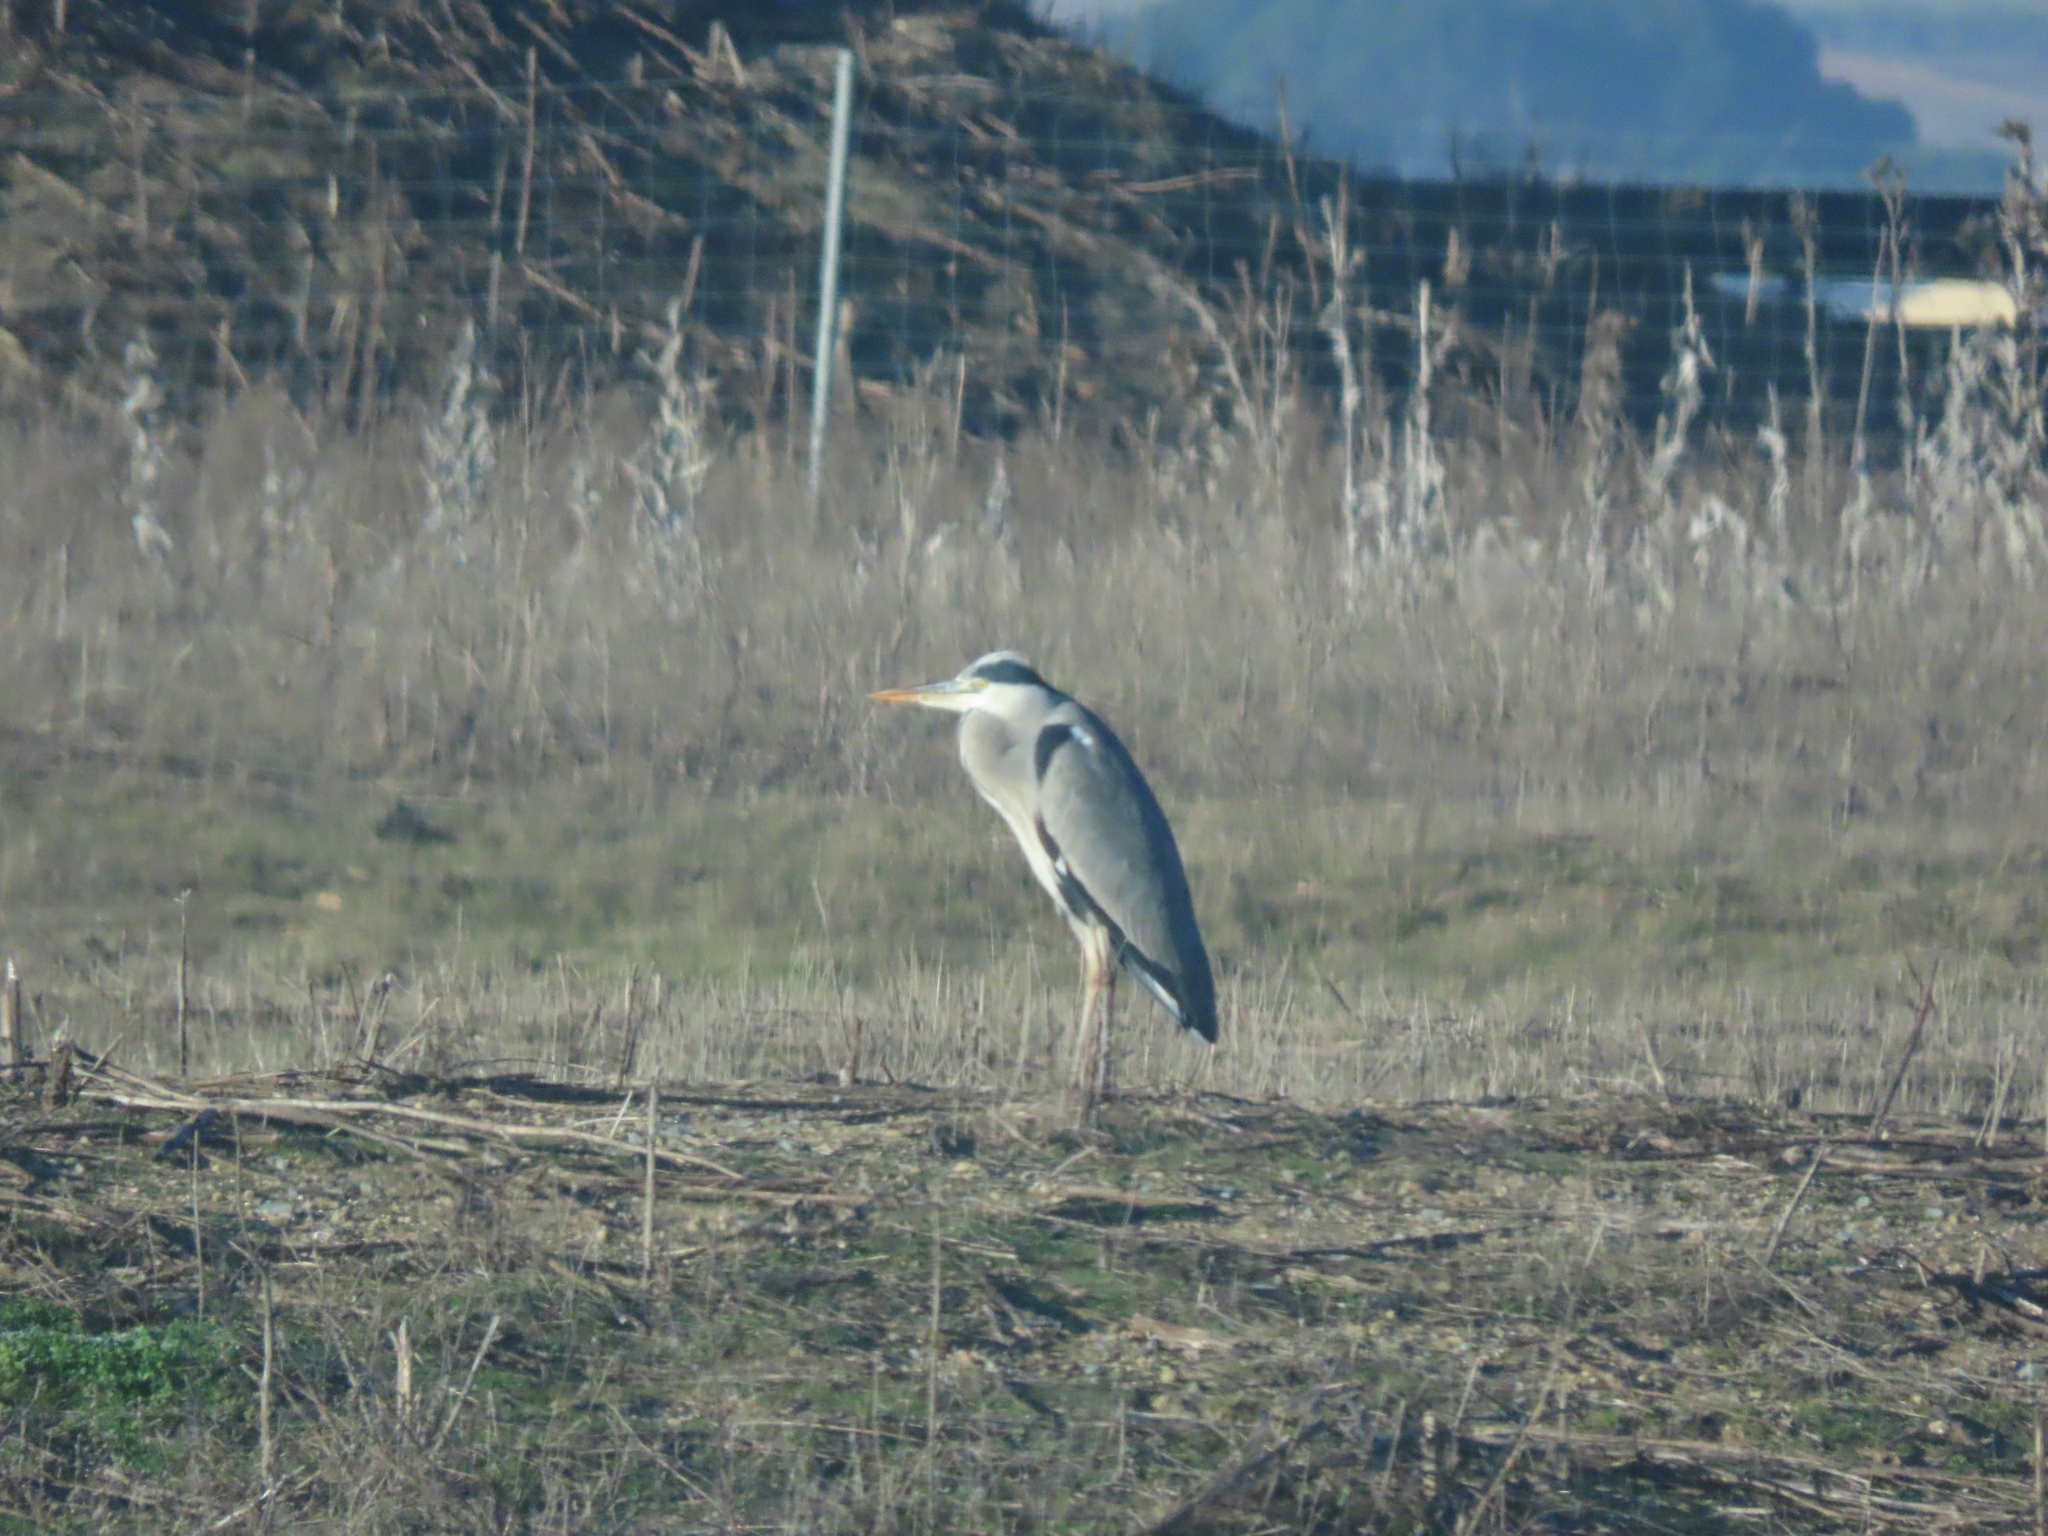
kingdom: Animalia
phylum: Chordata
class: Aves
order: Pelecaniformes
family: Ardeidae
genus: Ardea
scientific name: Ardea cinerea
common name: Grey heron
